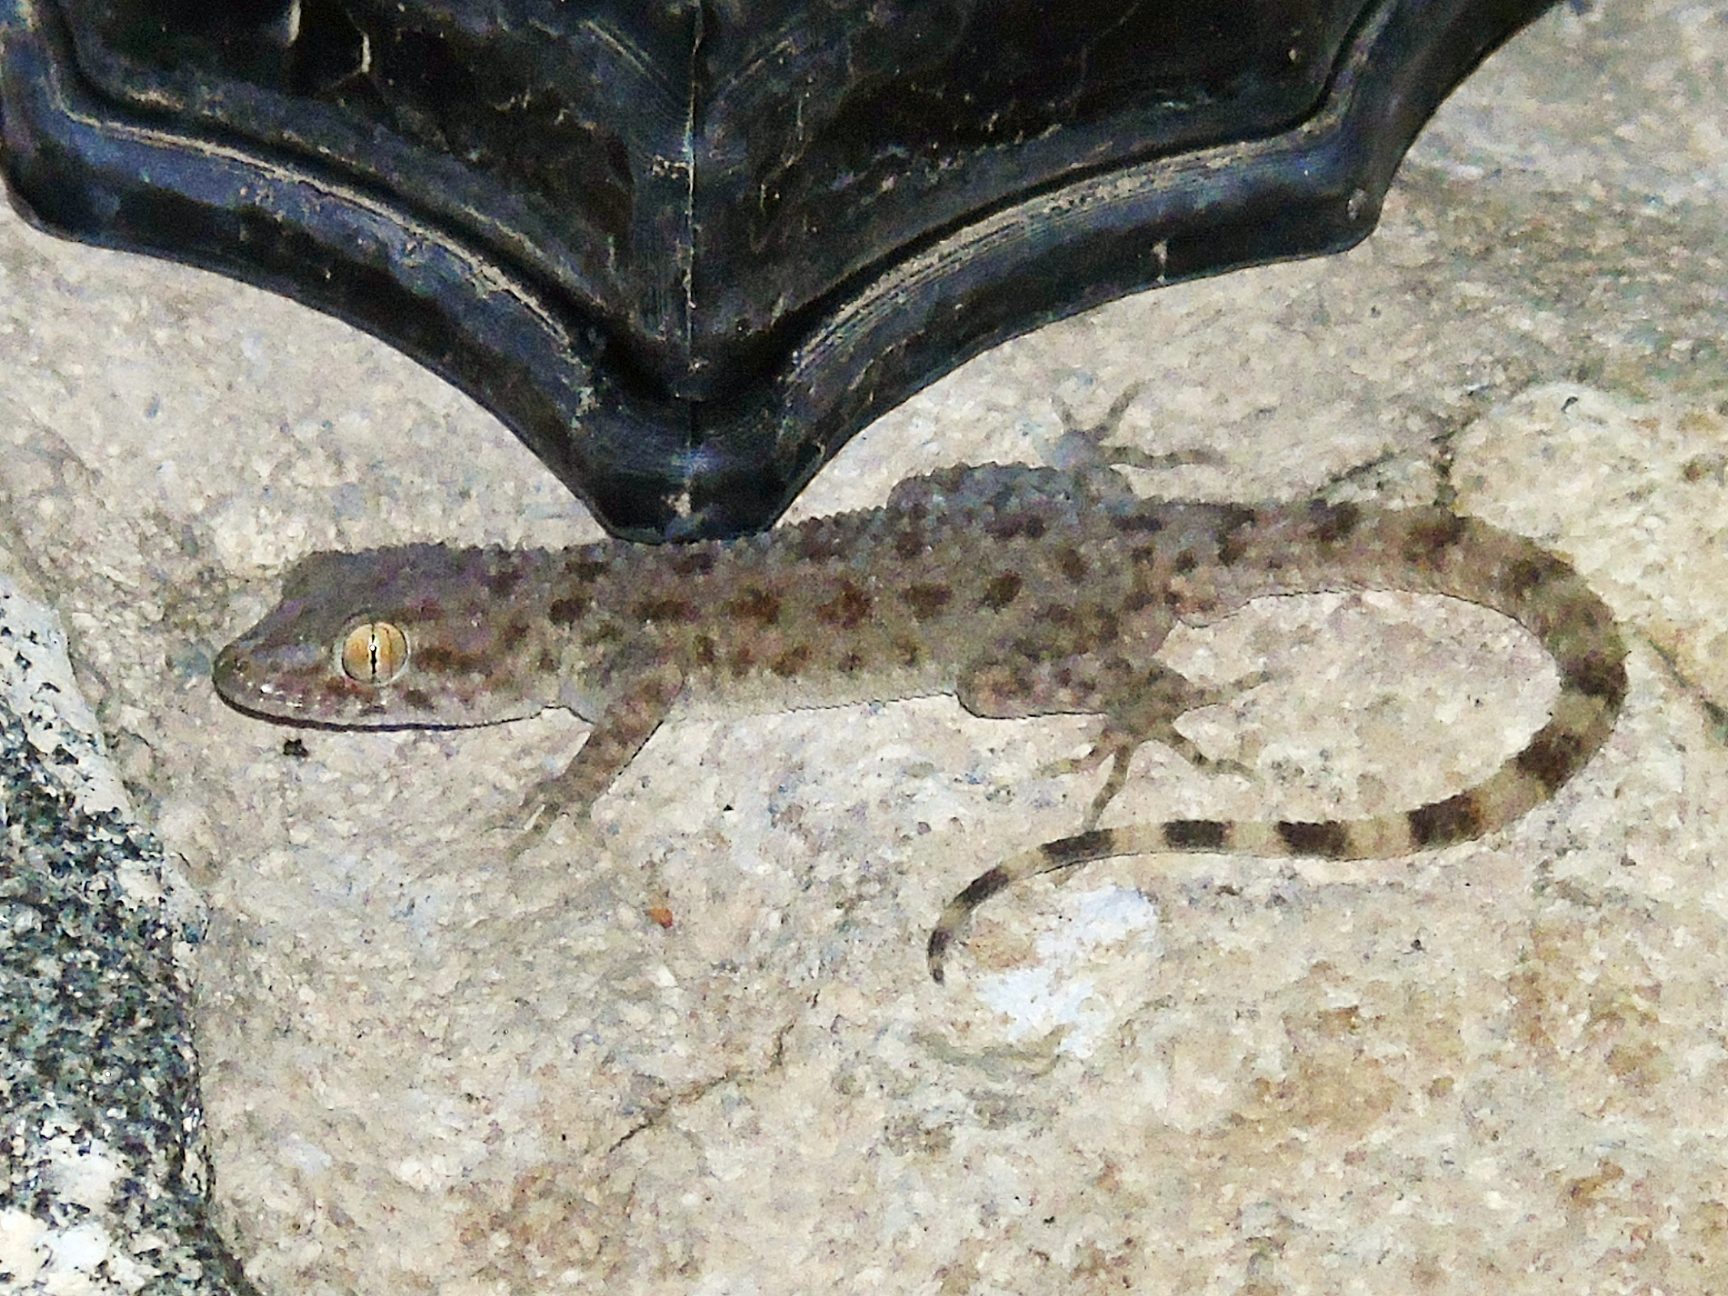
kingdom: Animalia
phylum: Chordata
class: Squamata
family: Gekkonidae
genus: Cyrtopodion
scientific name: Cyrtopodion scabrum
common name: Rough-tailed gecko
